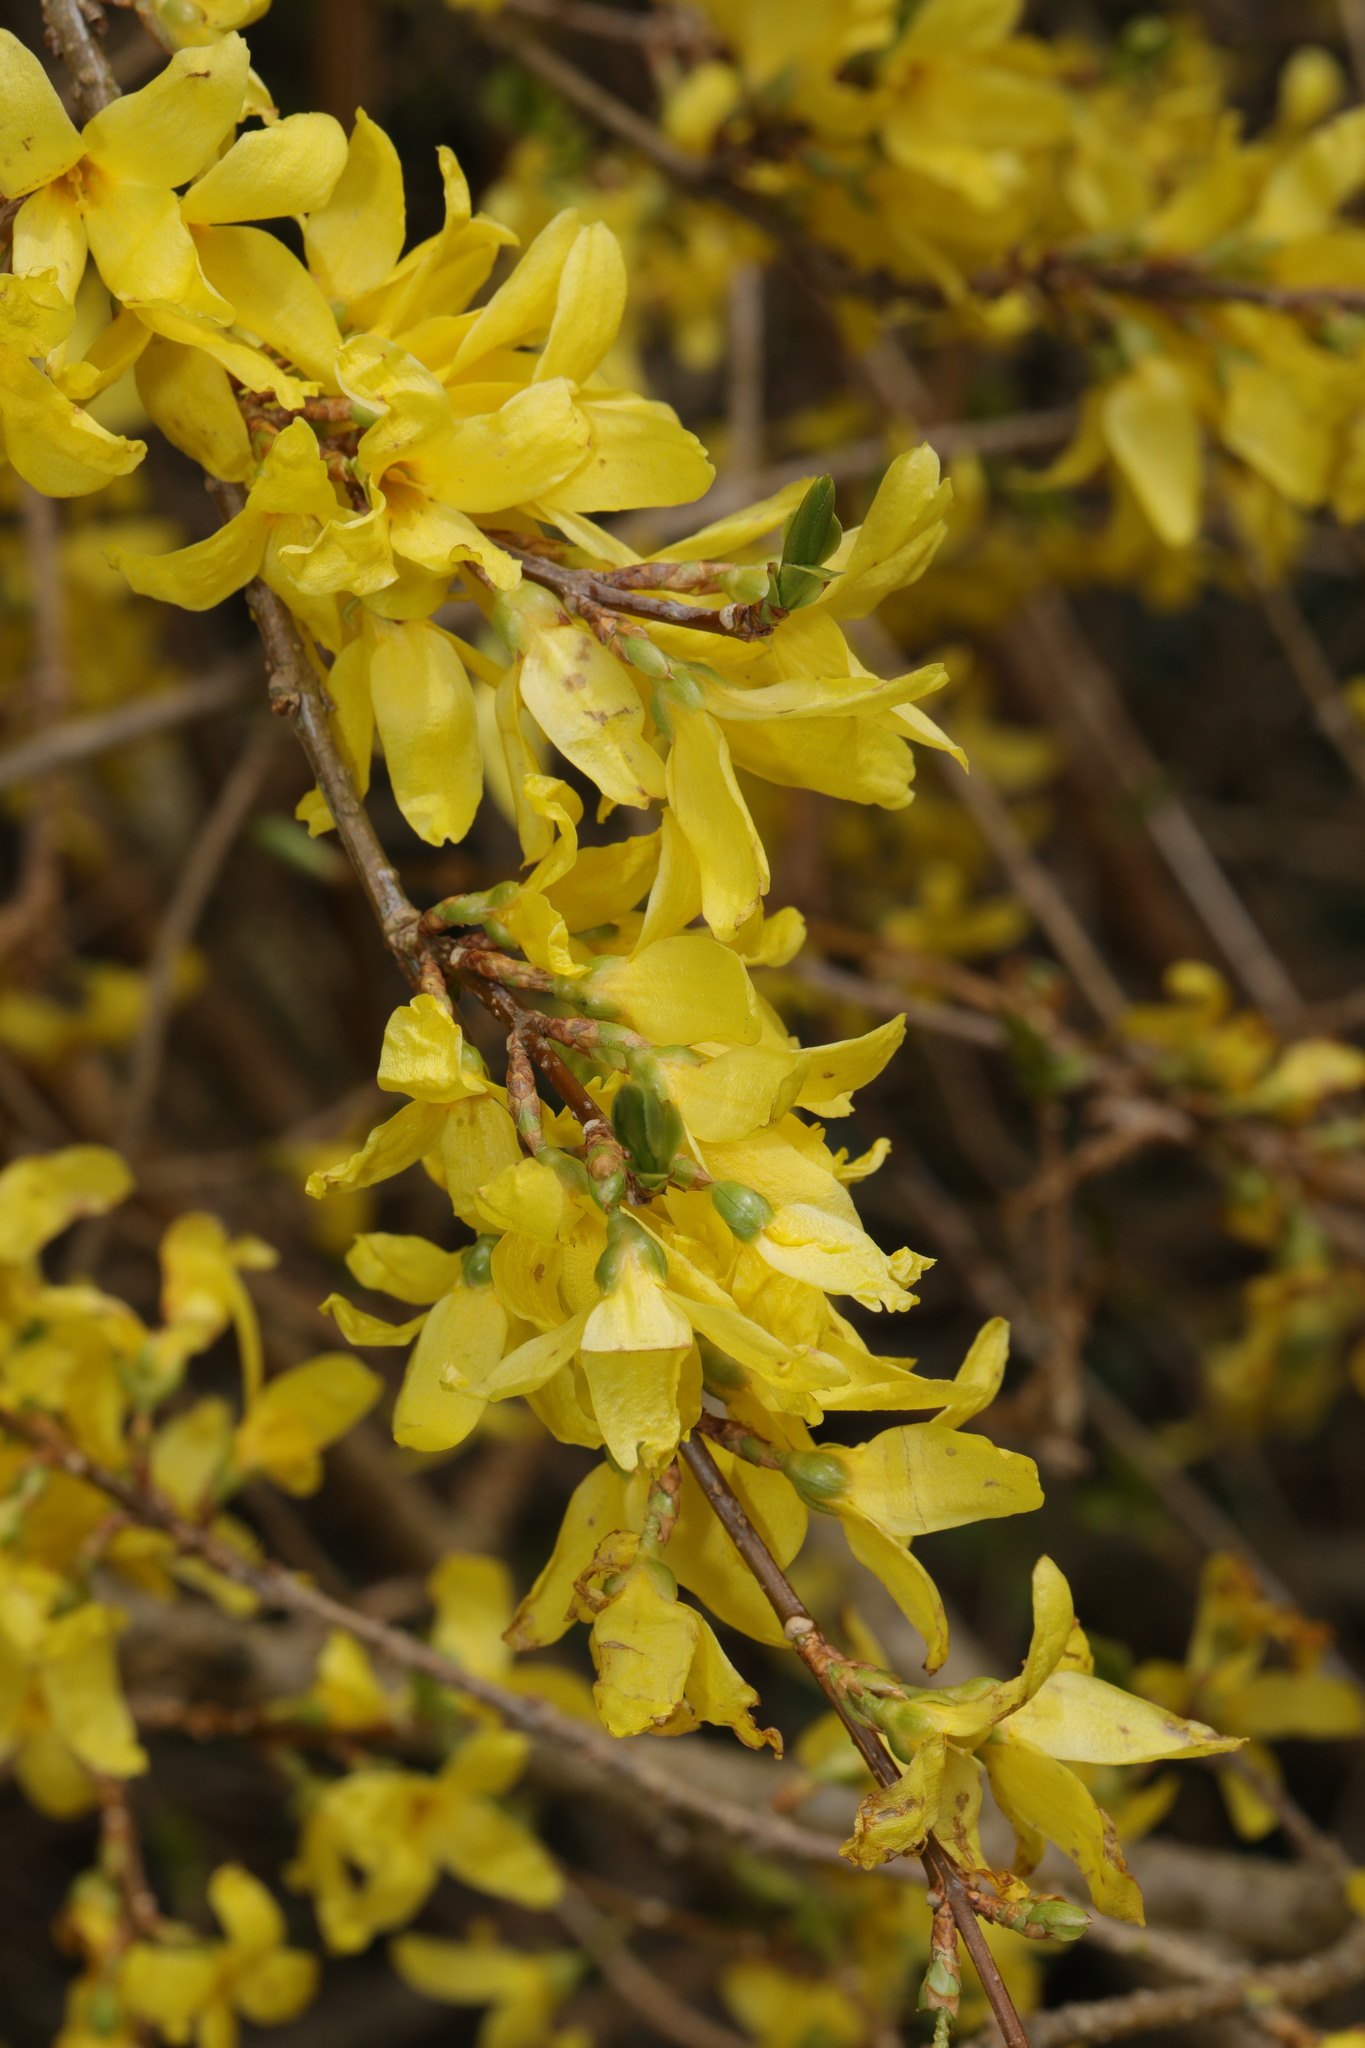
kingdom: Plantae
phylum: Tracheophyta
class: Magnoliopsida
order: Lamiales
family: Oleaceae
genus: Forsythia
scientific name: Forsythia intermedia
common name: Forsythia
